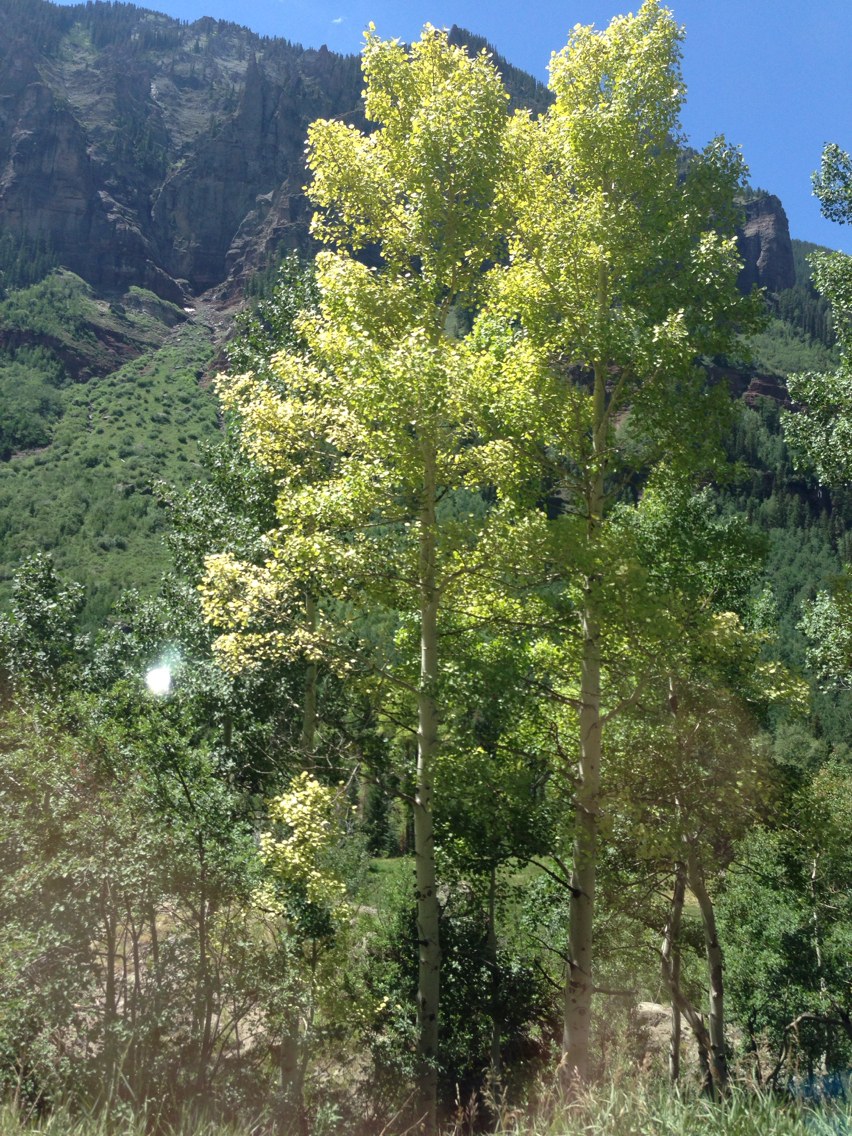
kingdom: Plantae
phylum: Tracheophyta
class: Magnoliopsida
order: Malpighiales
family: Salicaceae
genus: Populus
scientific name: Populus tremuloides
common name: Quaking aspen
